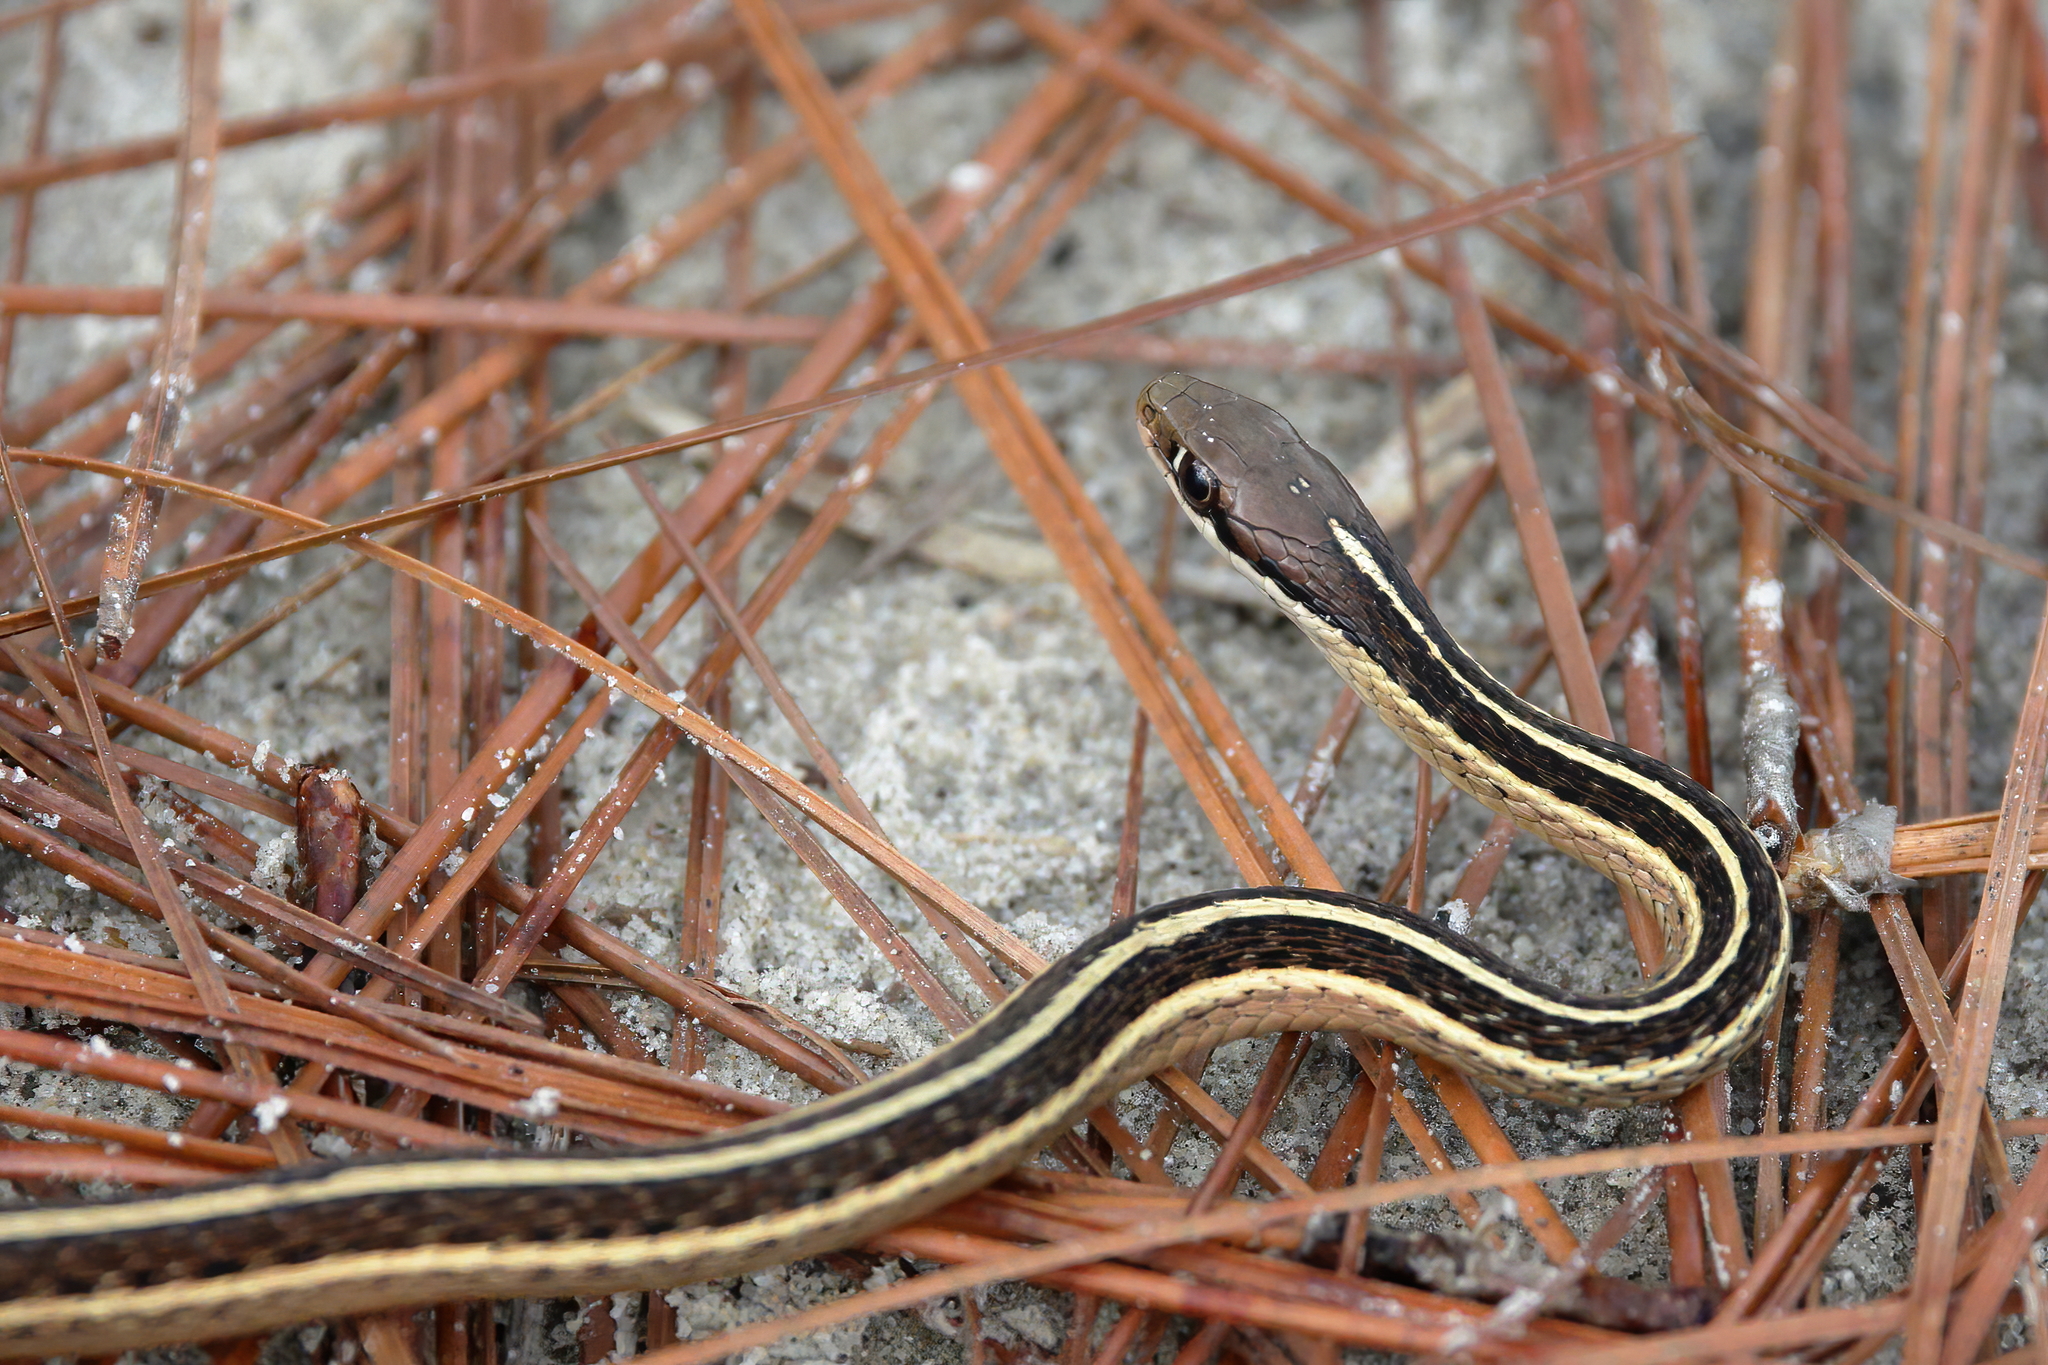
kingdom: Animalia
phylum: Chordata
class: Squamata
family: Colubridae
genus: Thamnophis
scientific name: Thamnophis saurita
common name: Eastern ribbonsnake
